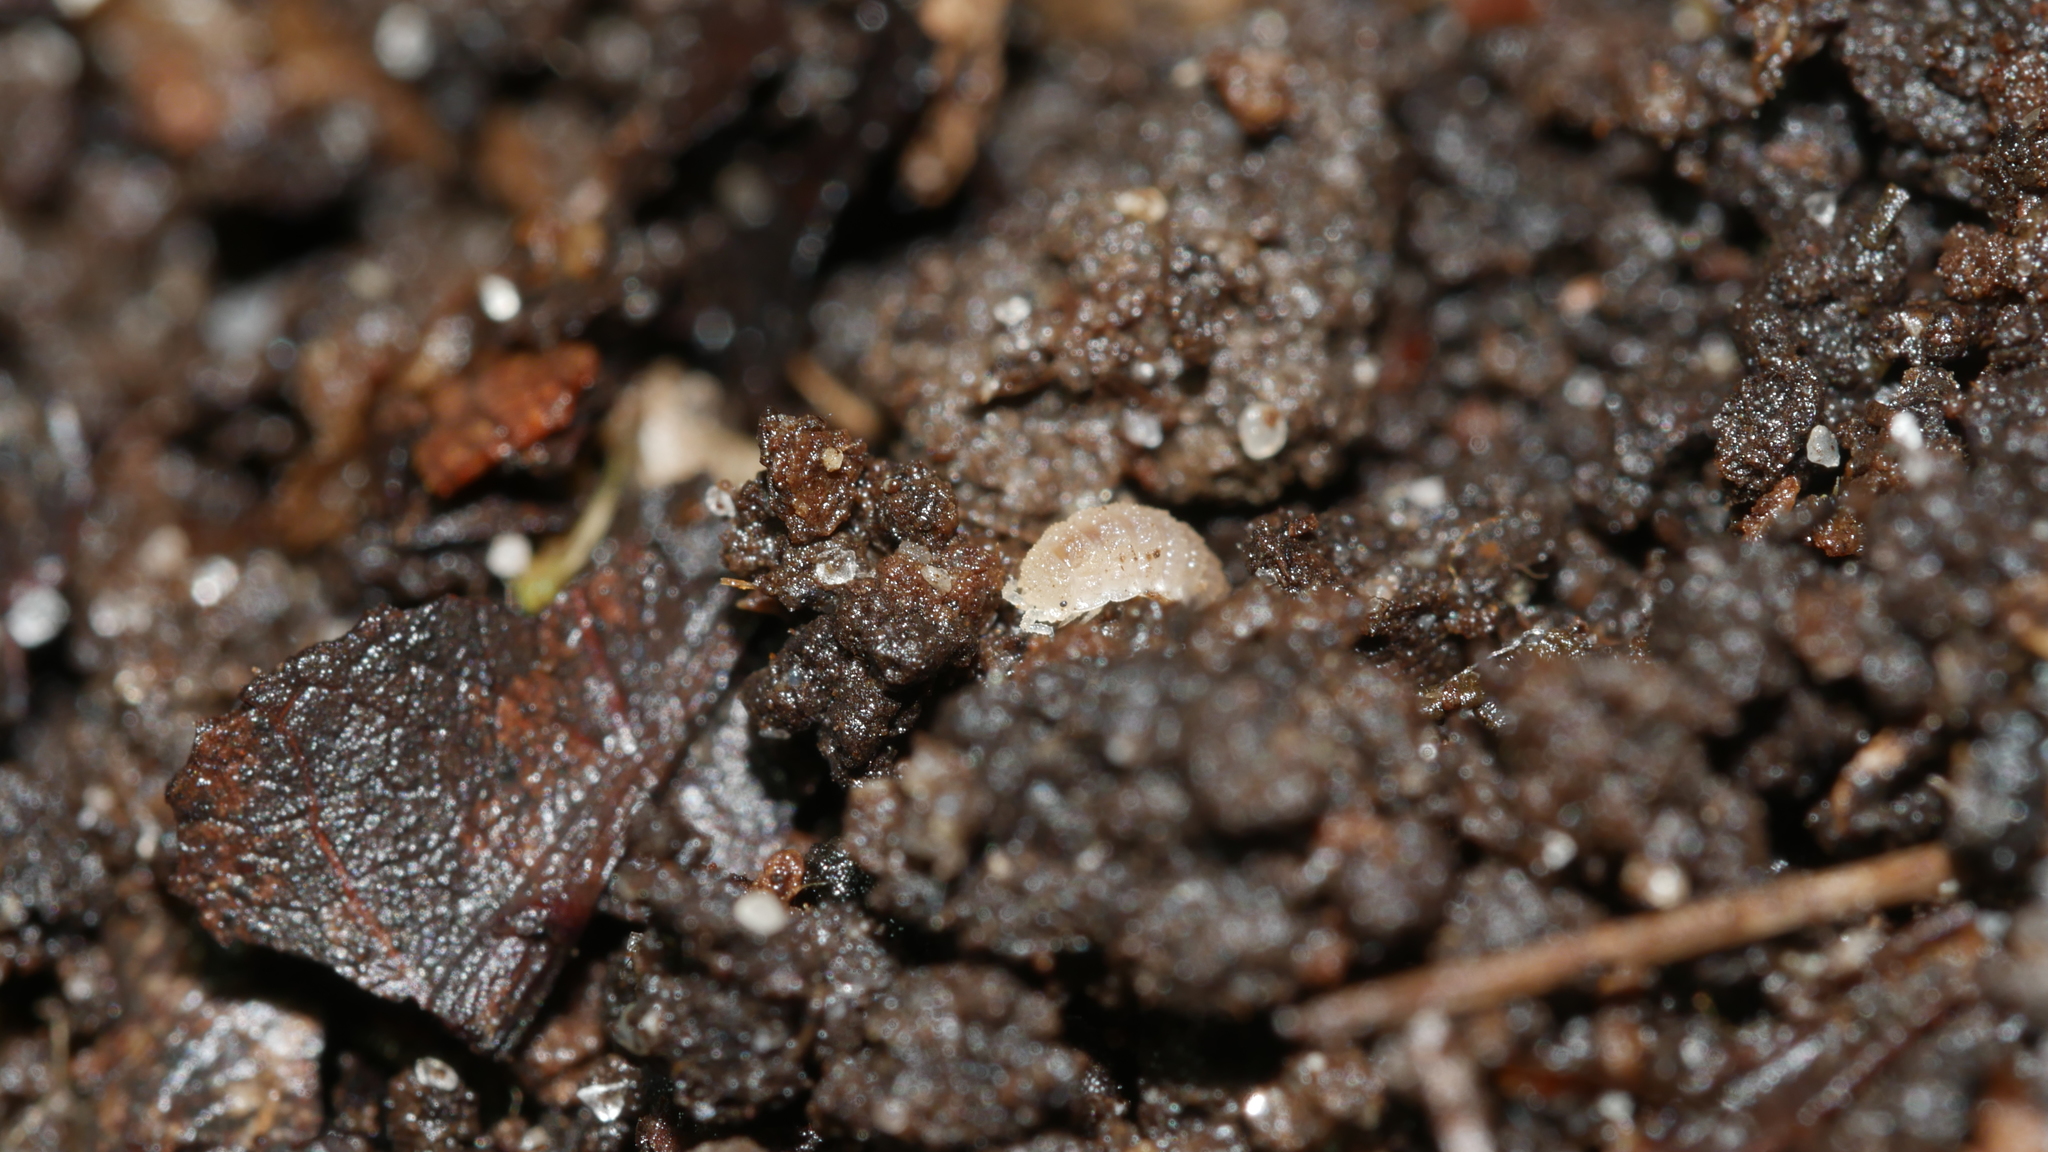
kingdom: Animalia
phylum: Arthropoda
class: Malacostraca
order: Isopoda
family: Trichoniscidae
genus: Haplophthalmus
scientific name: Haplophthalmus danicus
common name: Pillbug
